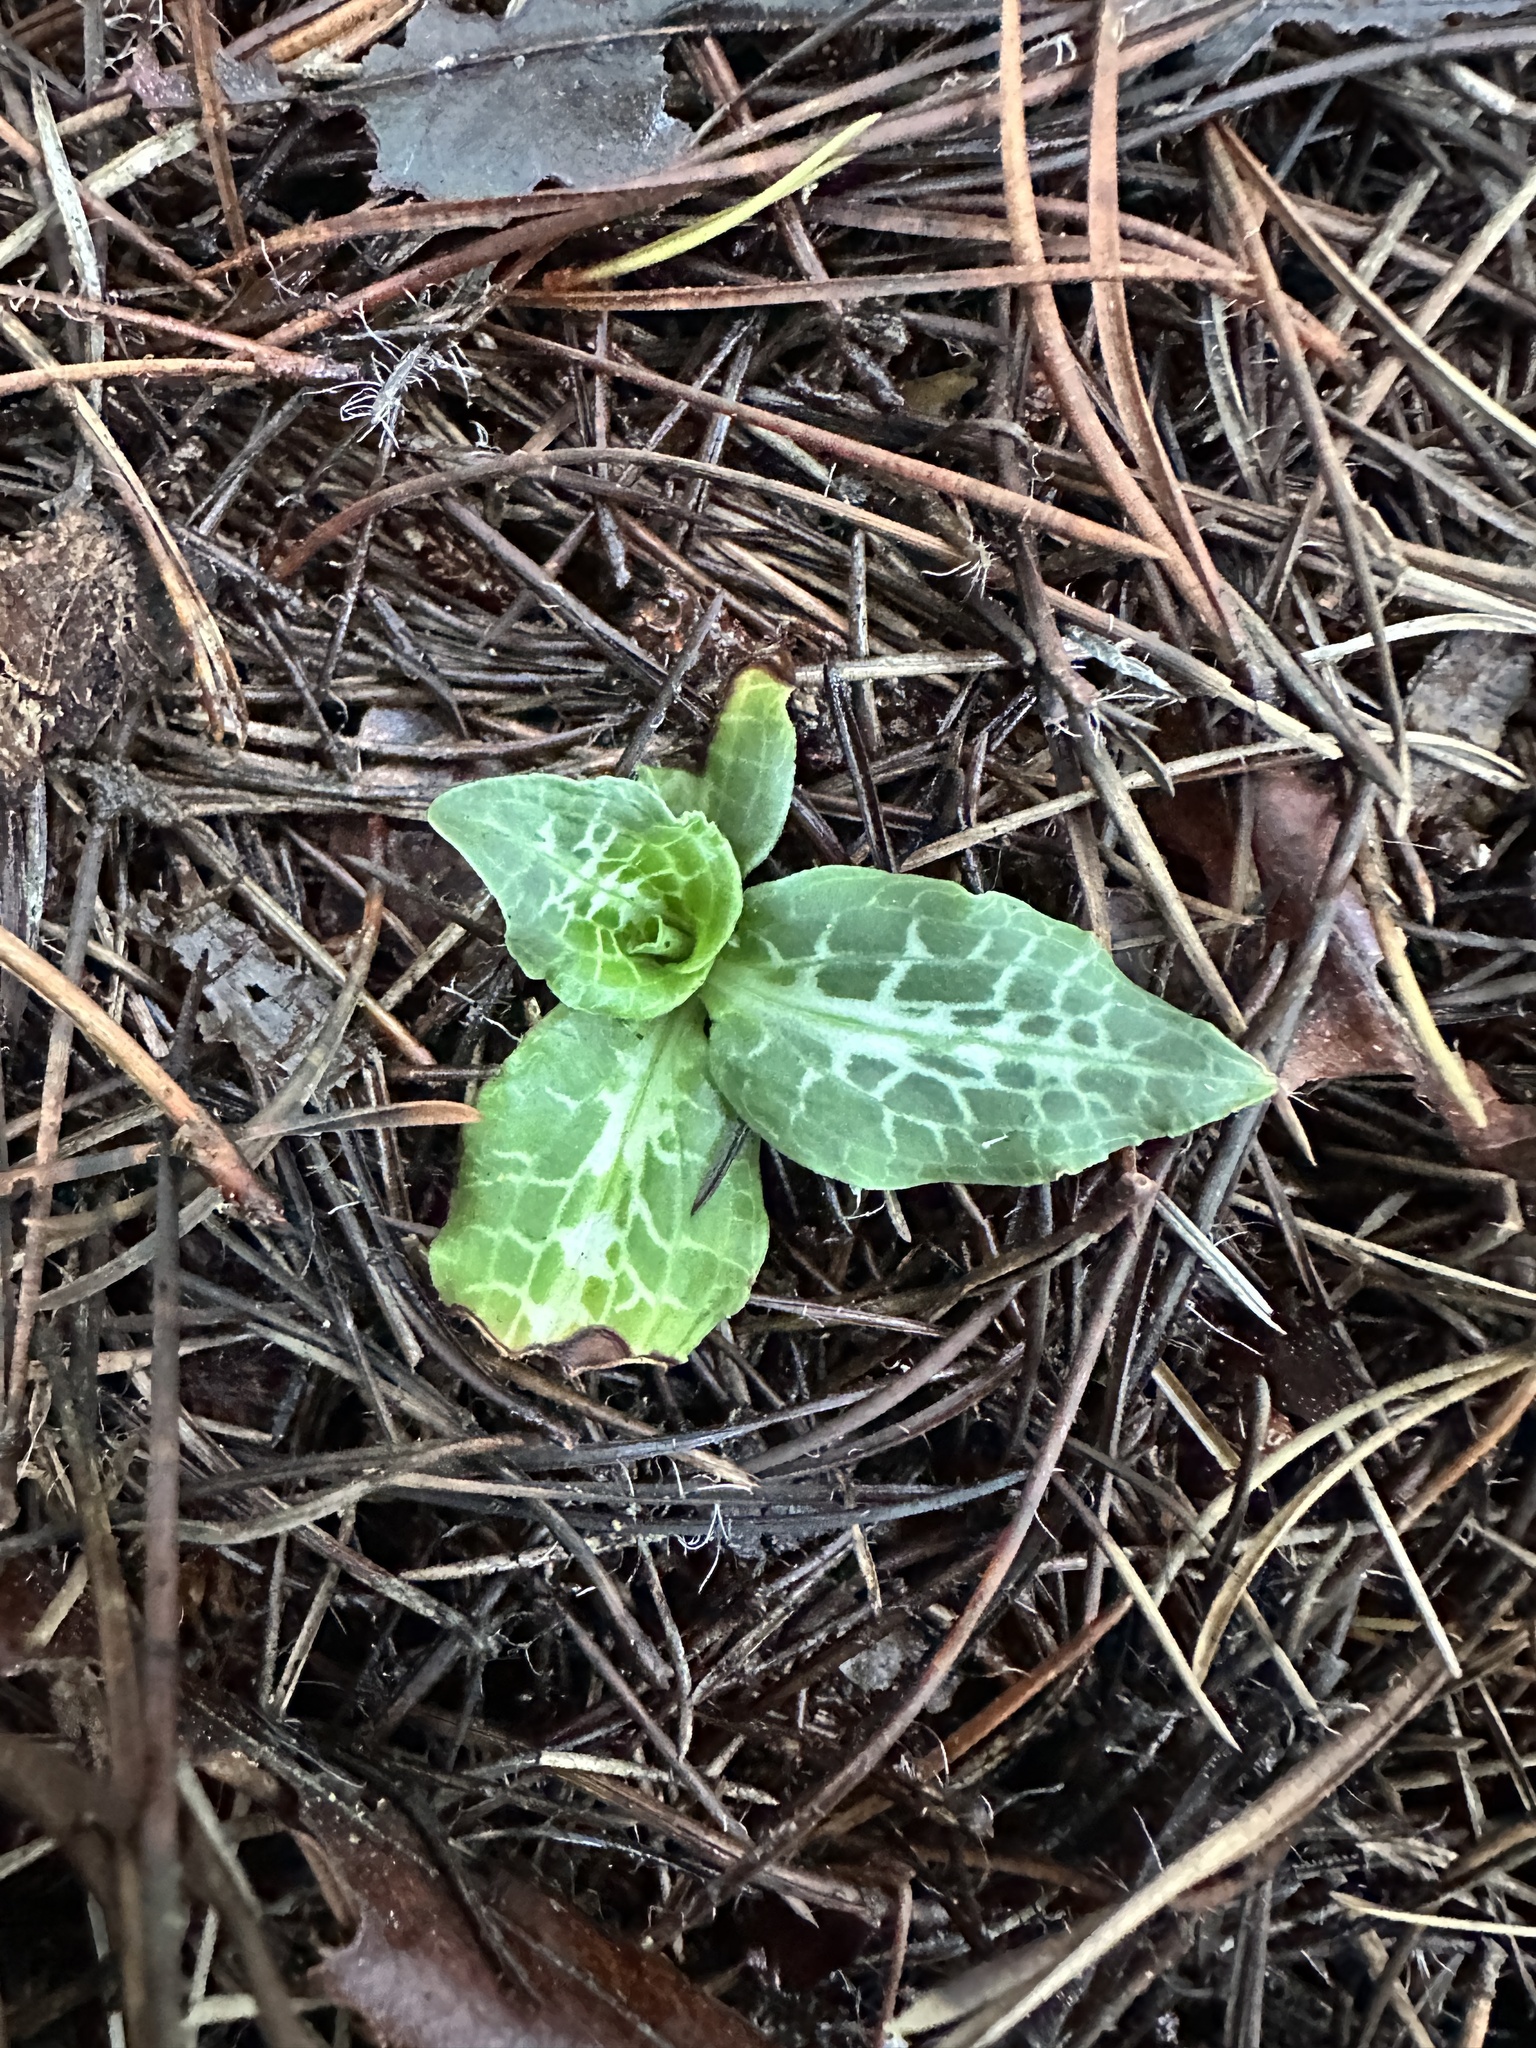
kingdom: Plantae
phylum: Tracheophyta
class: Liliopsida
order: Asparagales
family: Orchidaceae
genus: Goodyera
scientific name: Goodyera oblongifolia
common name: Giant rattlesnake-plantain
